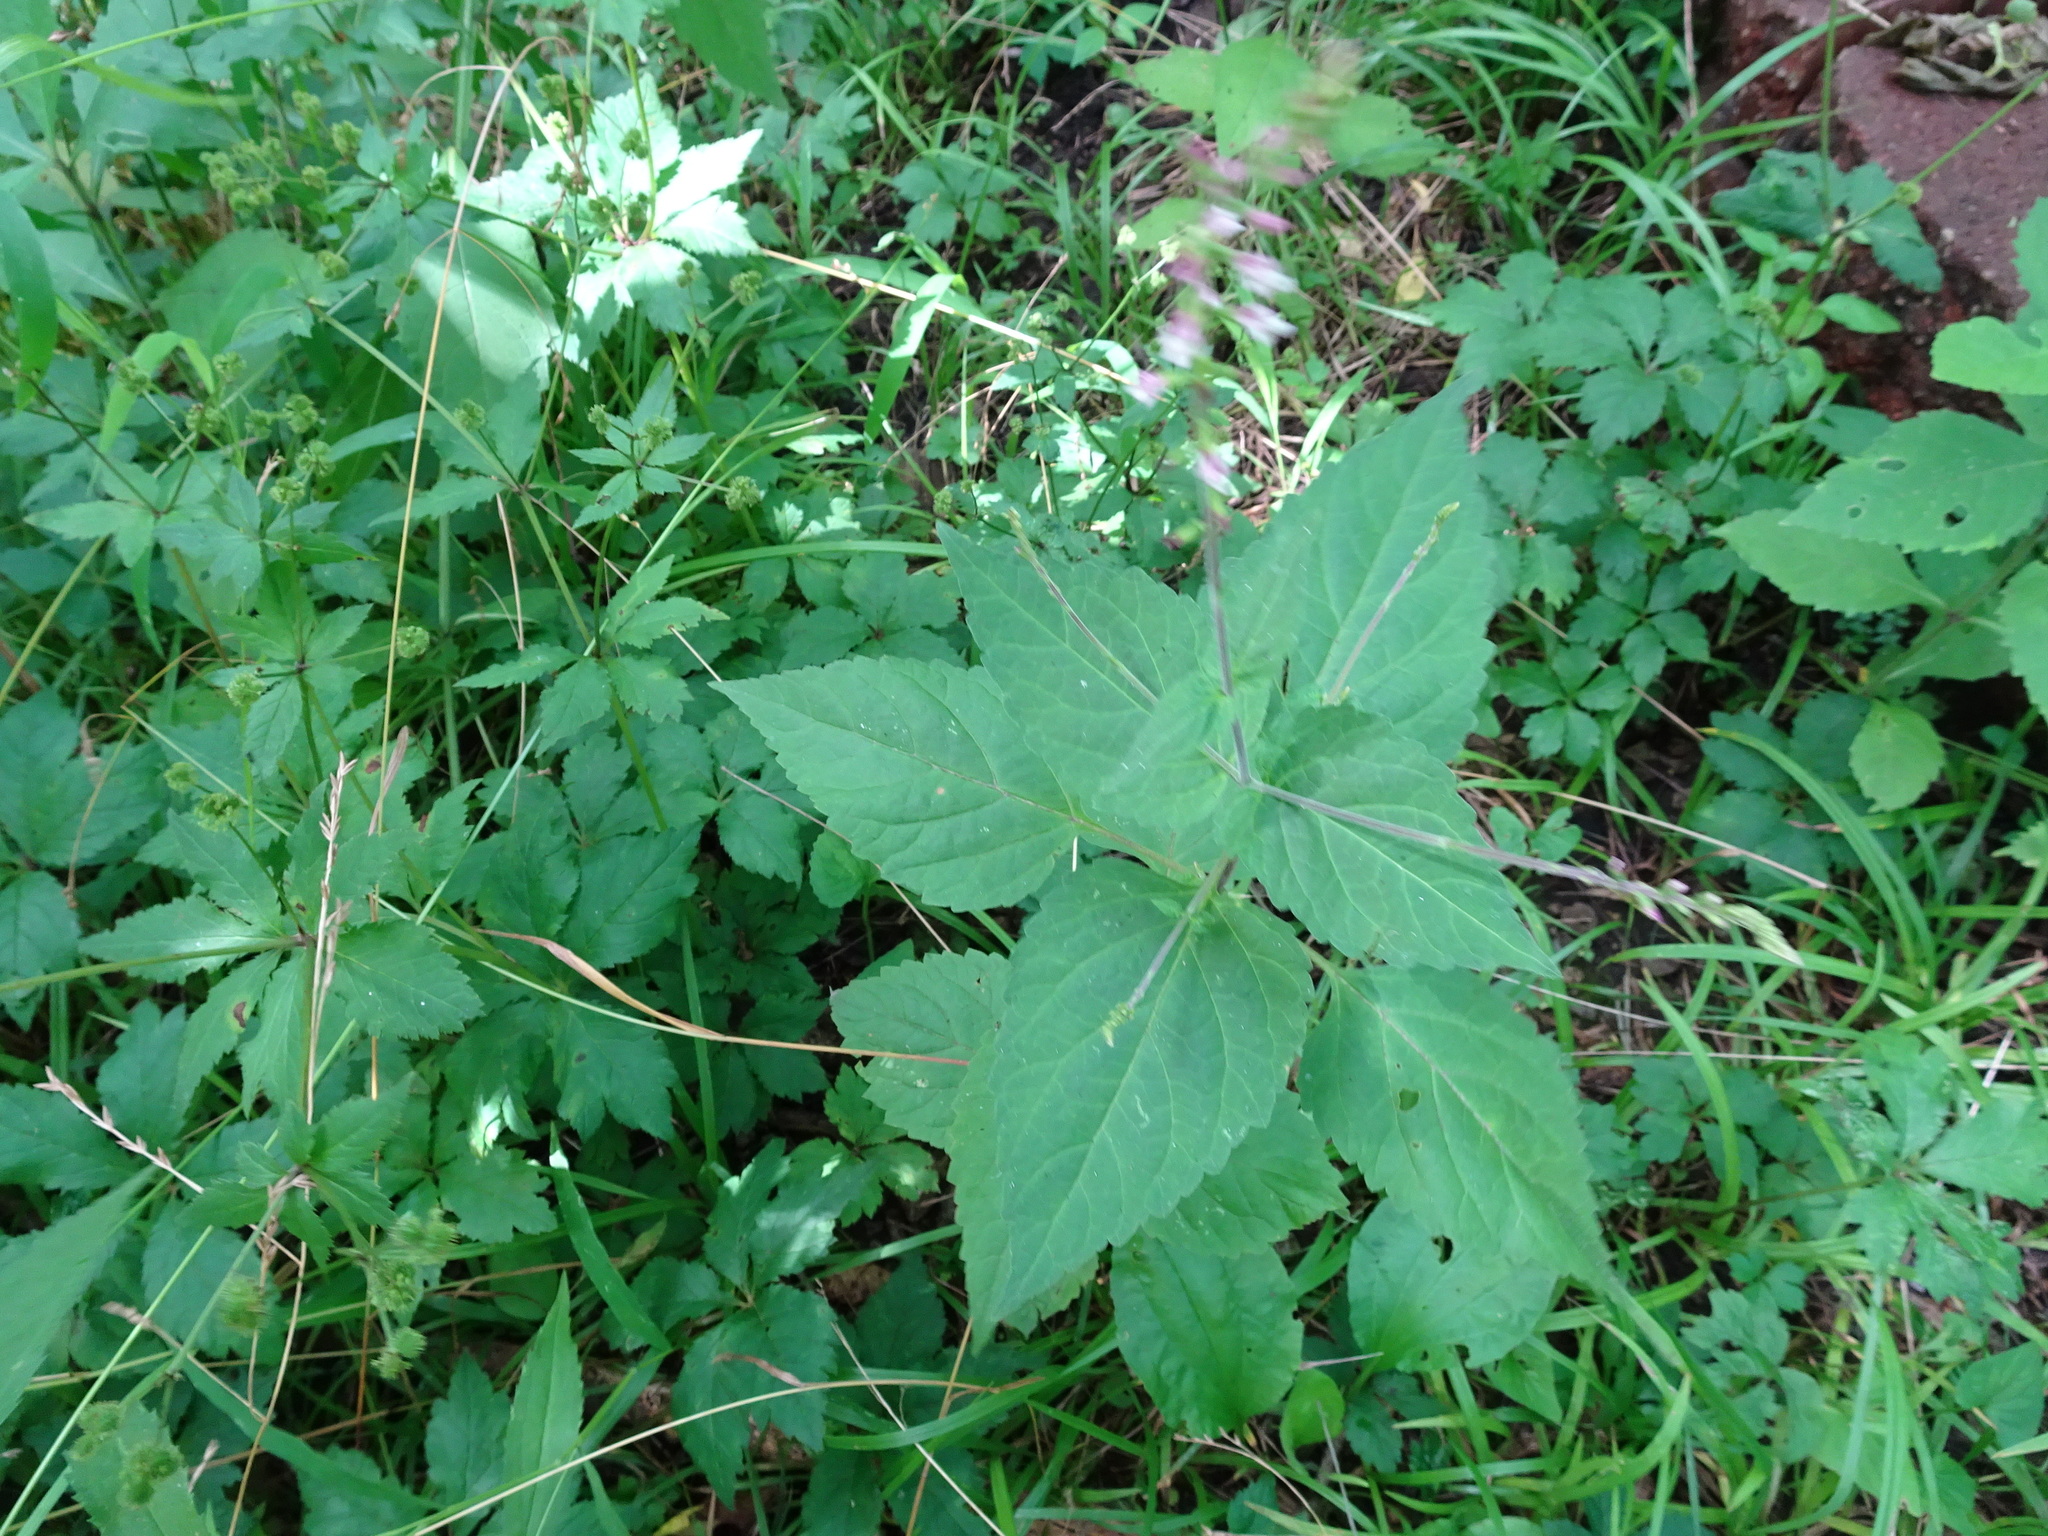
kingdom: Plantae
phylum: Tracheophyta
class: Magnoliopsida
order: Lamiales
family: Phrymaceae
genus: Phryma
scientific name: Phryma leptostachya
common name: American lopseed
